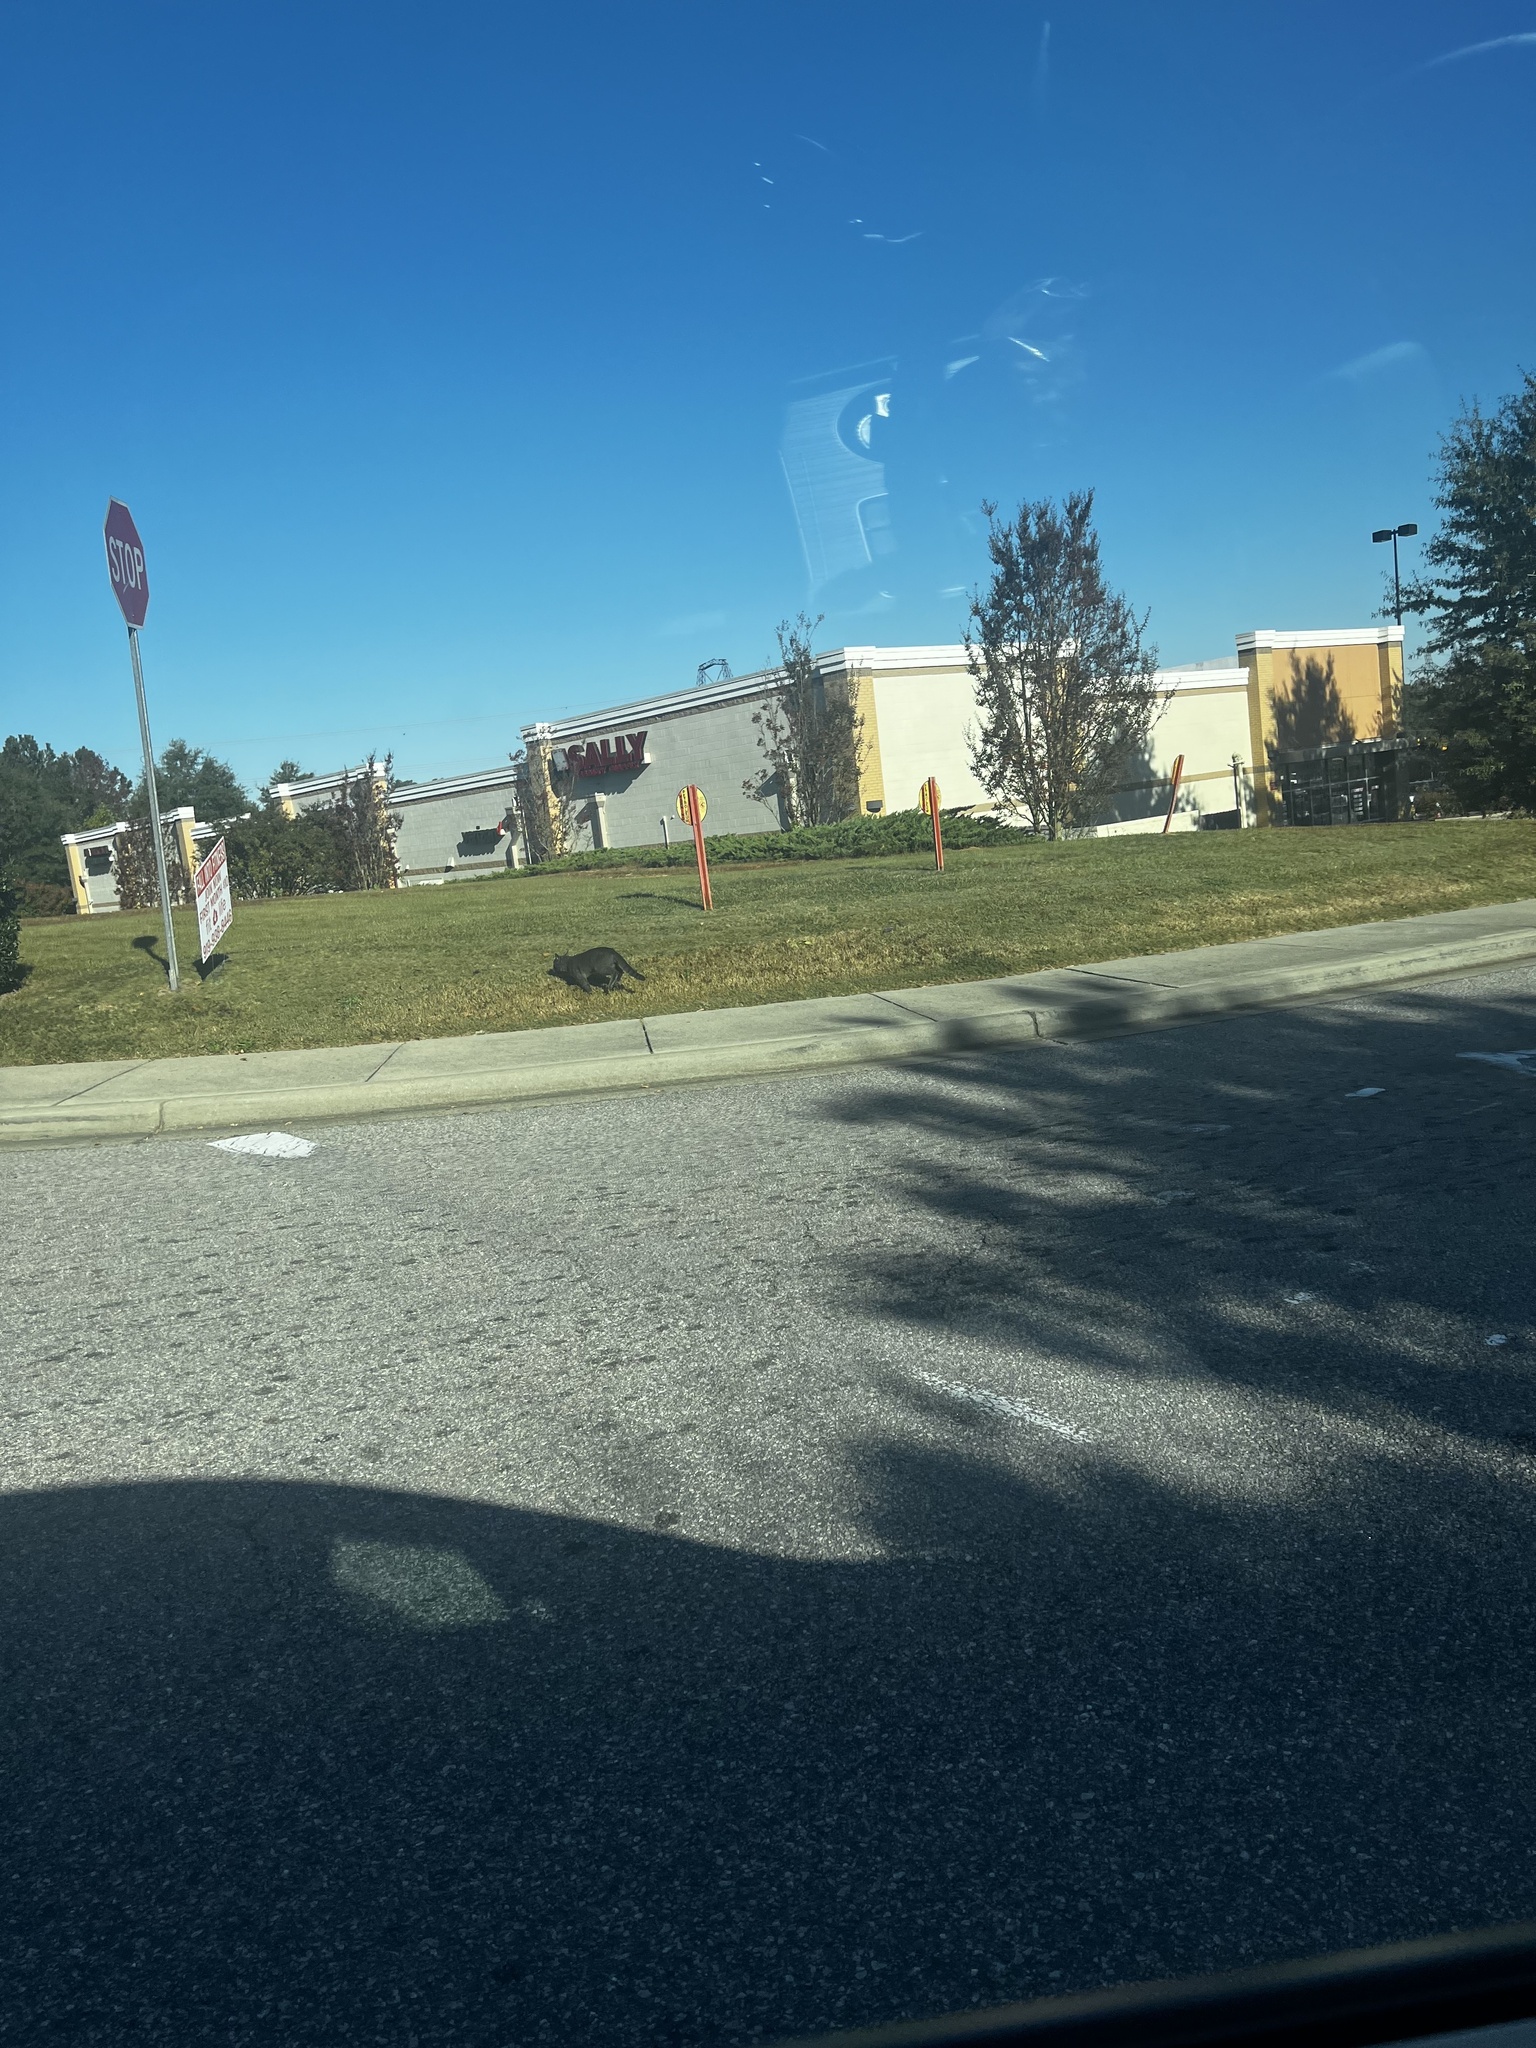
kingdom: Animalia
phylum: Chordata
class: Mammalia
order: Carnivora
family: Felidae
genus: Felis
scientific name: Felis catus
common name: Domestic cat
